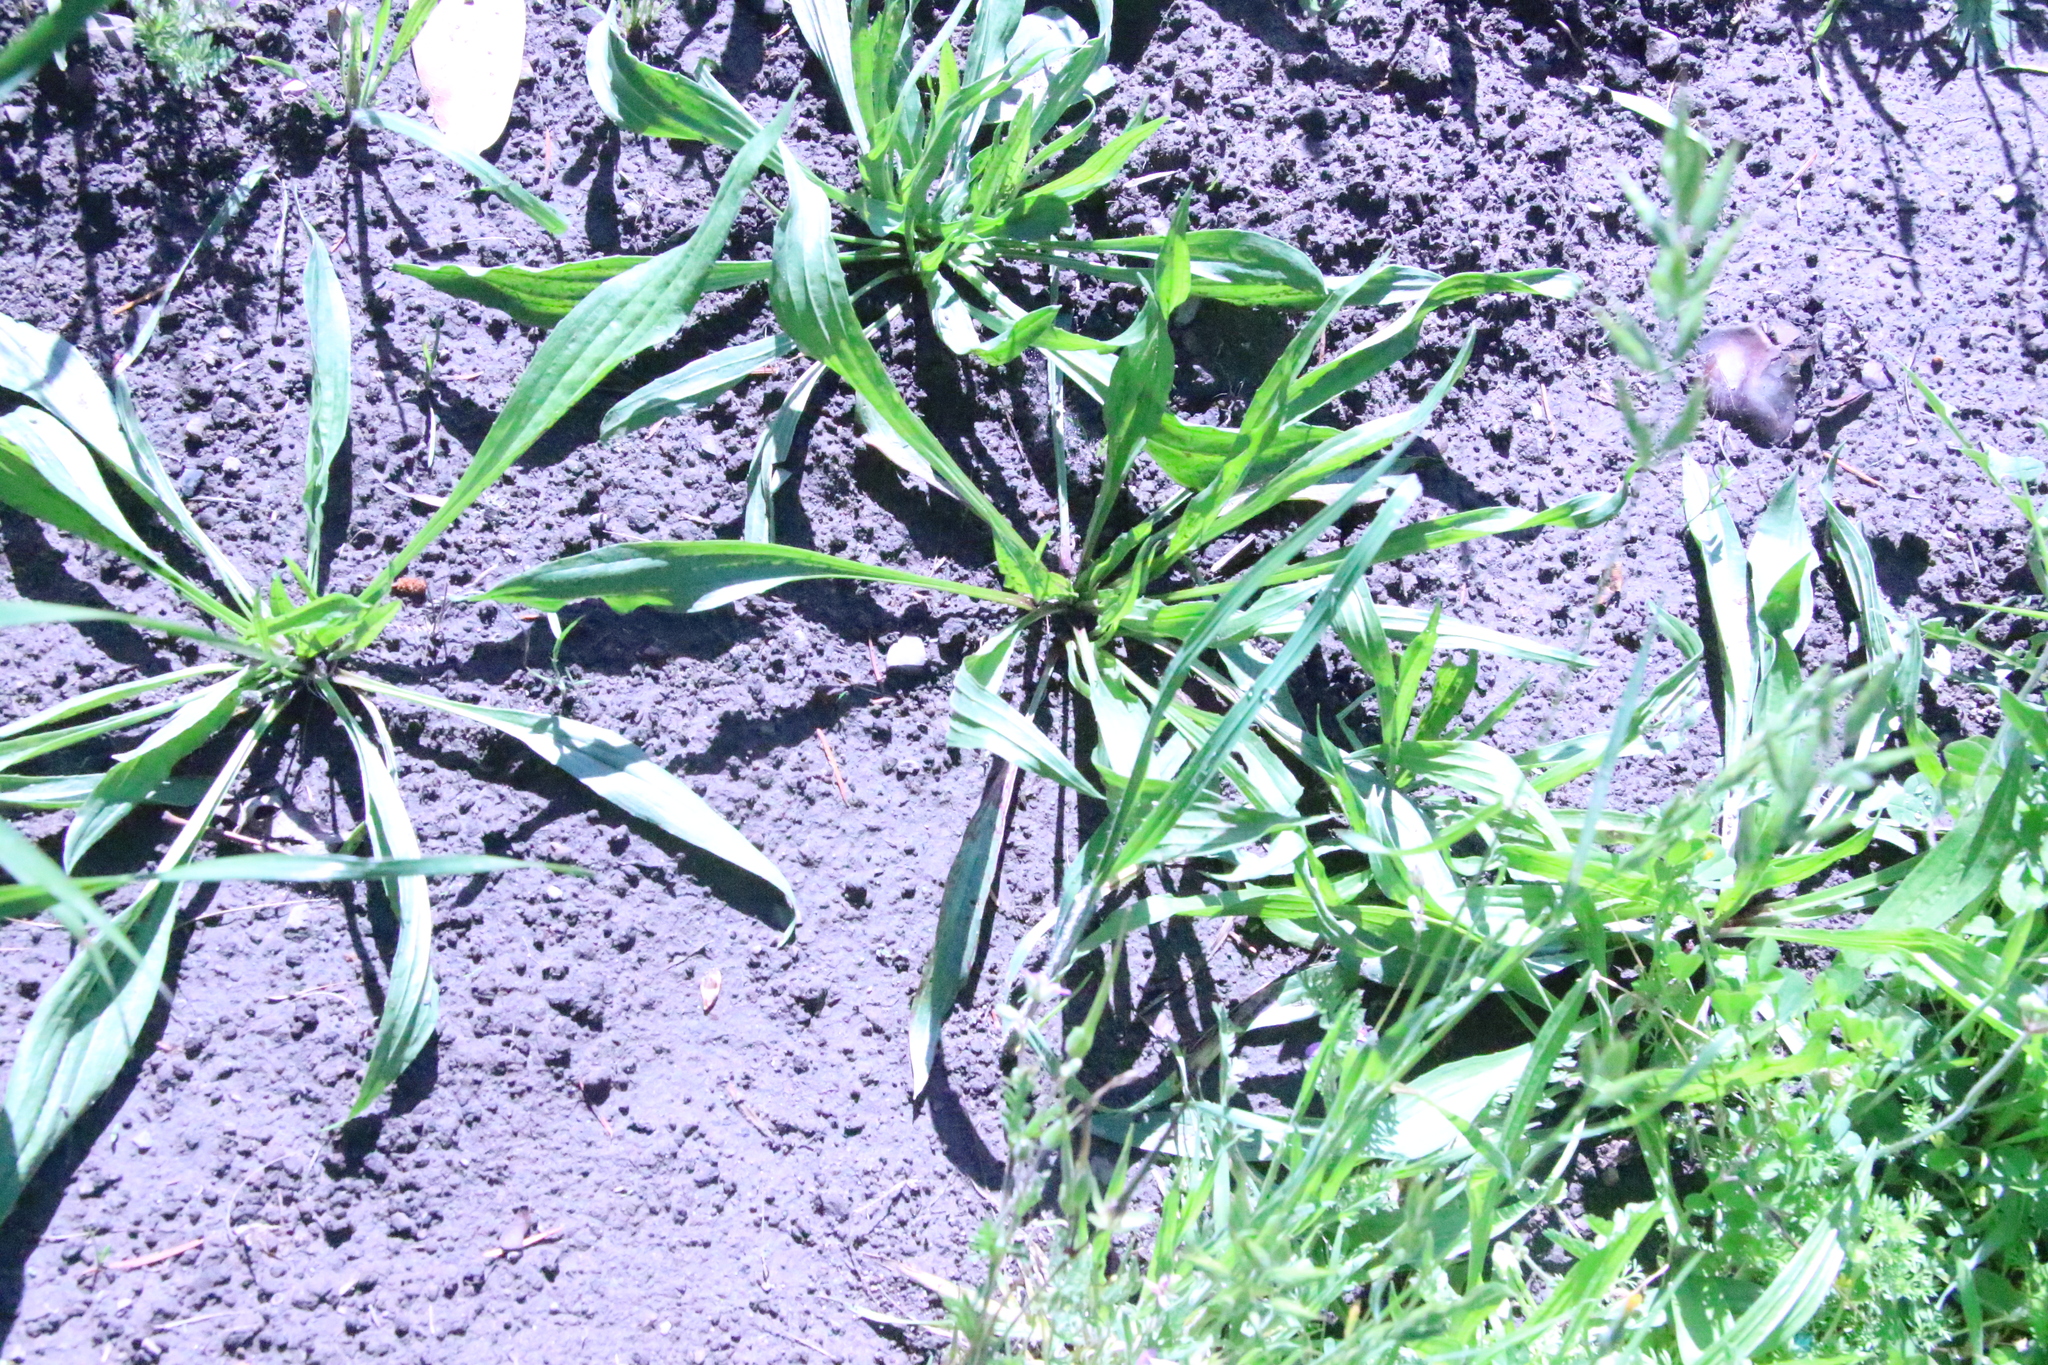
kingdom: Plantae
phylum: Tracheophyta
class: Magnoliopsida
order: Lamiales
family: Plantaginaceae
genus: Plantago
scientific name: Plantago lanceolata
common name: Ribwort plantain
